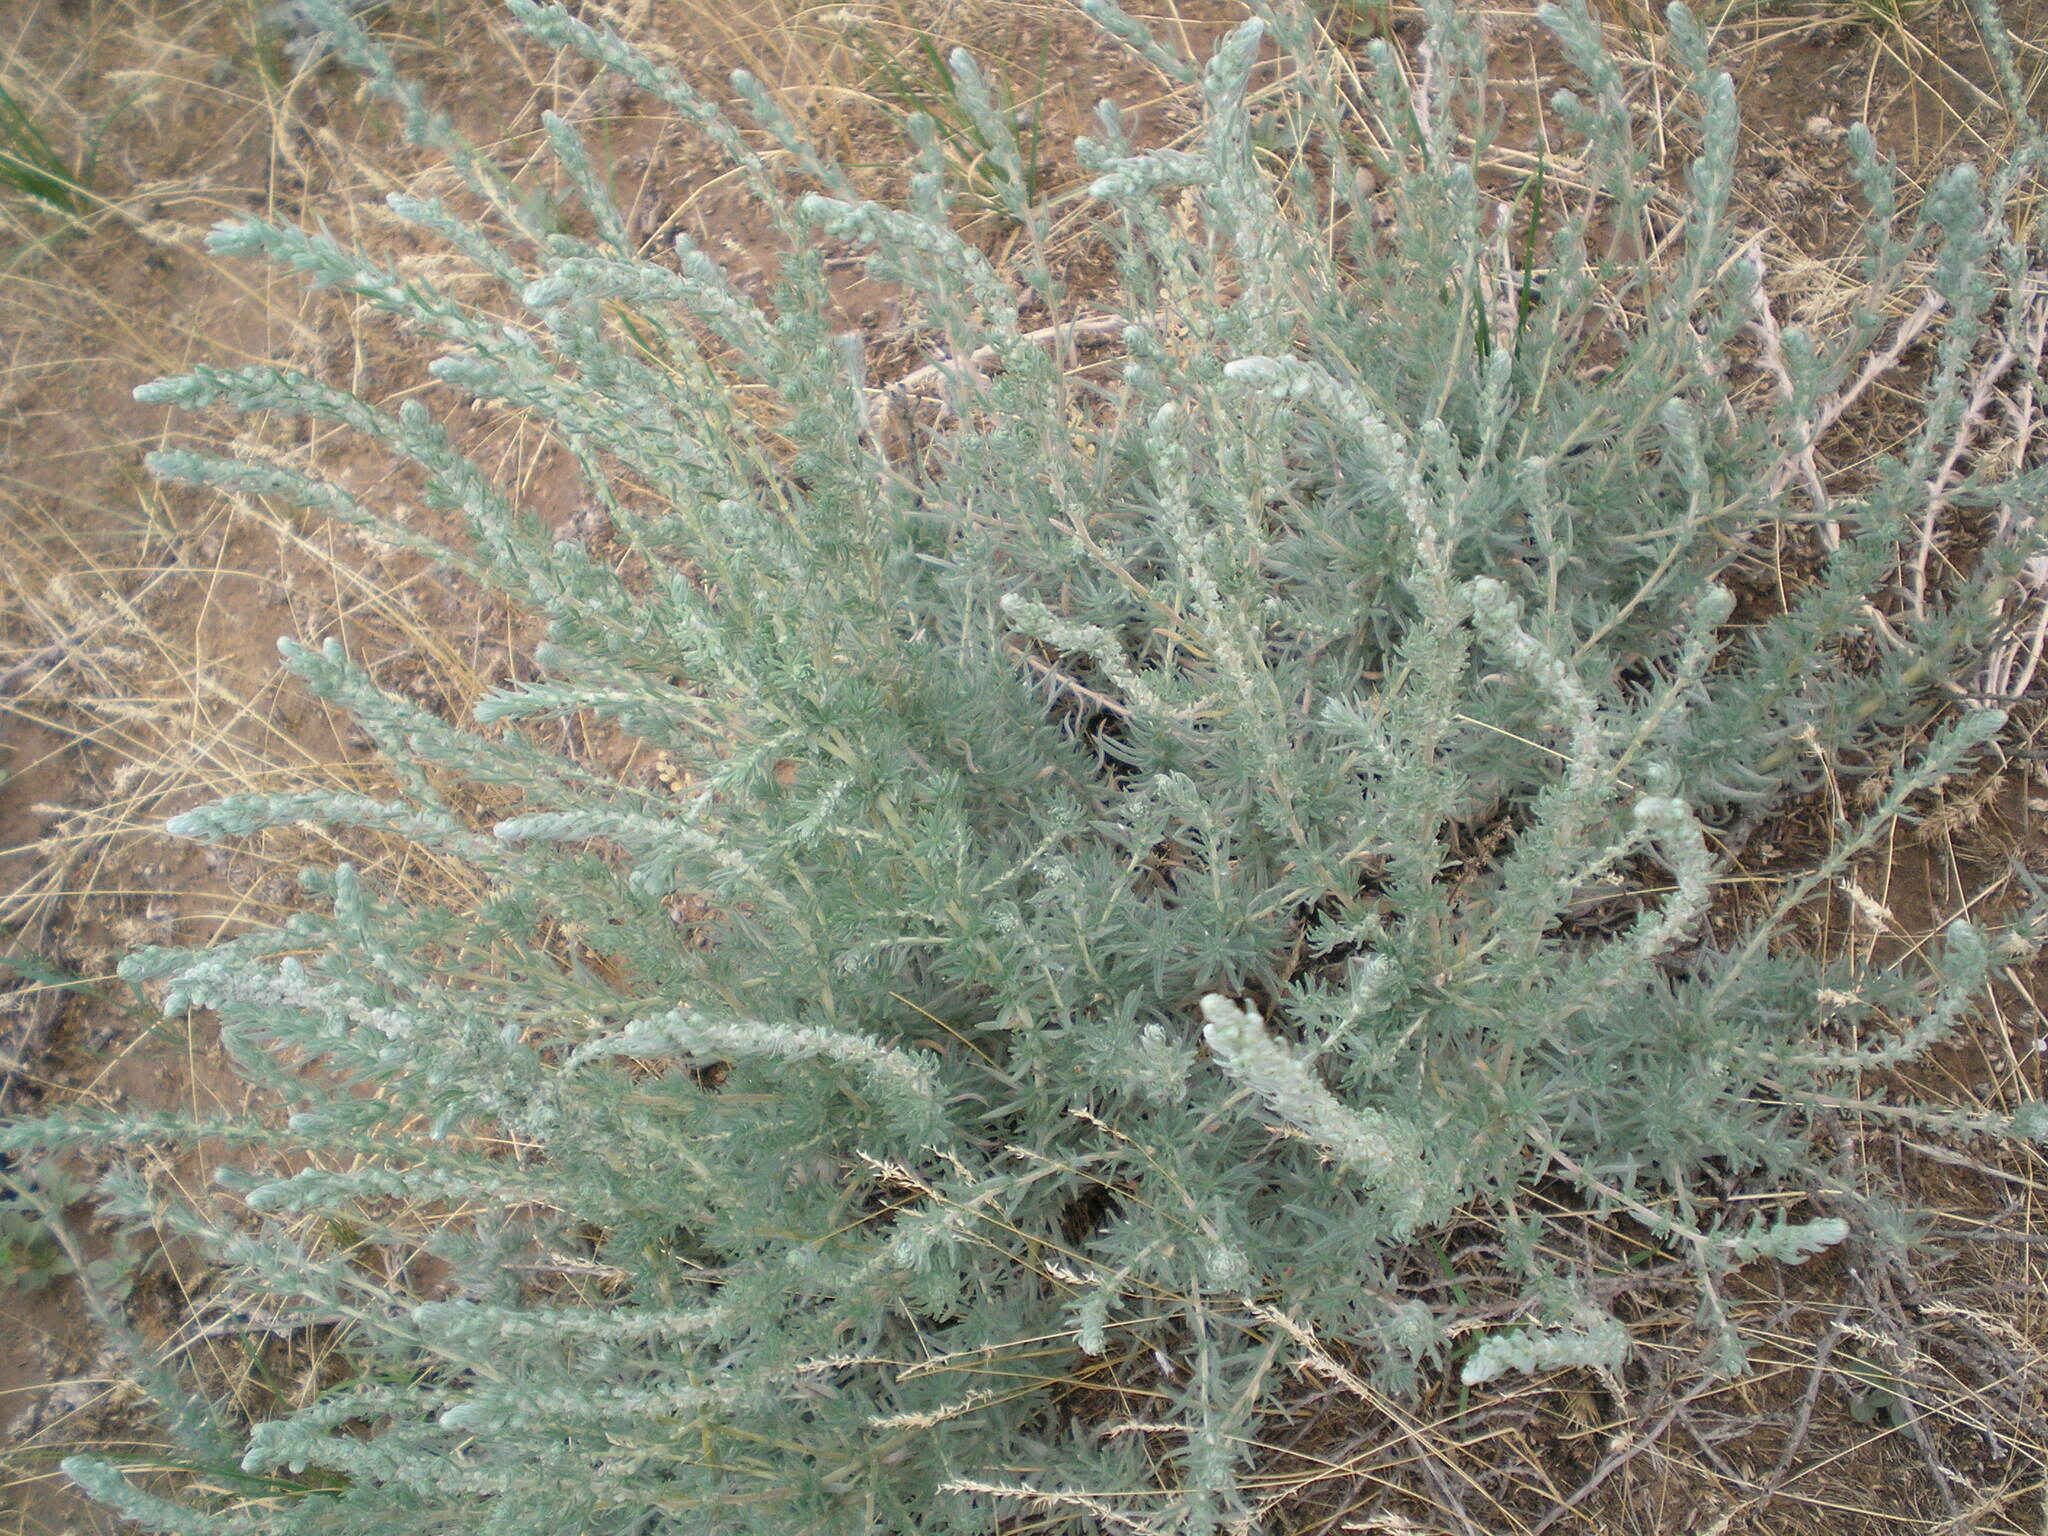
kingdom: Plantae
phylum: Tracheophyta
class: Magnoliopsida
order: Caryophyllales
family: Amaranthaceae
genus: Bassia
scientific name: Bassia prostrata
